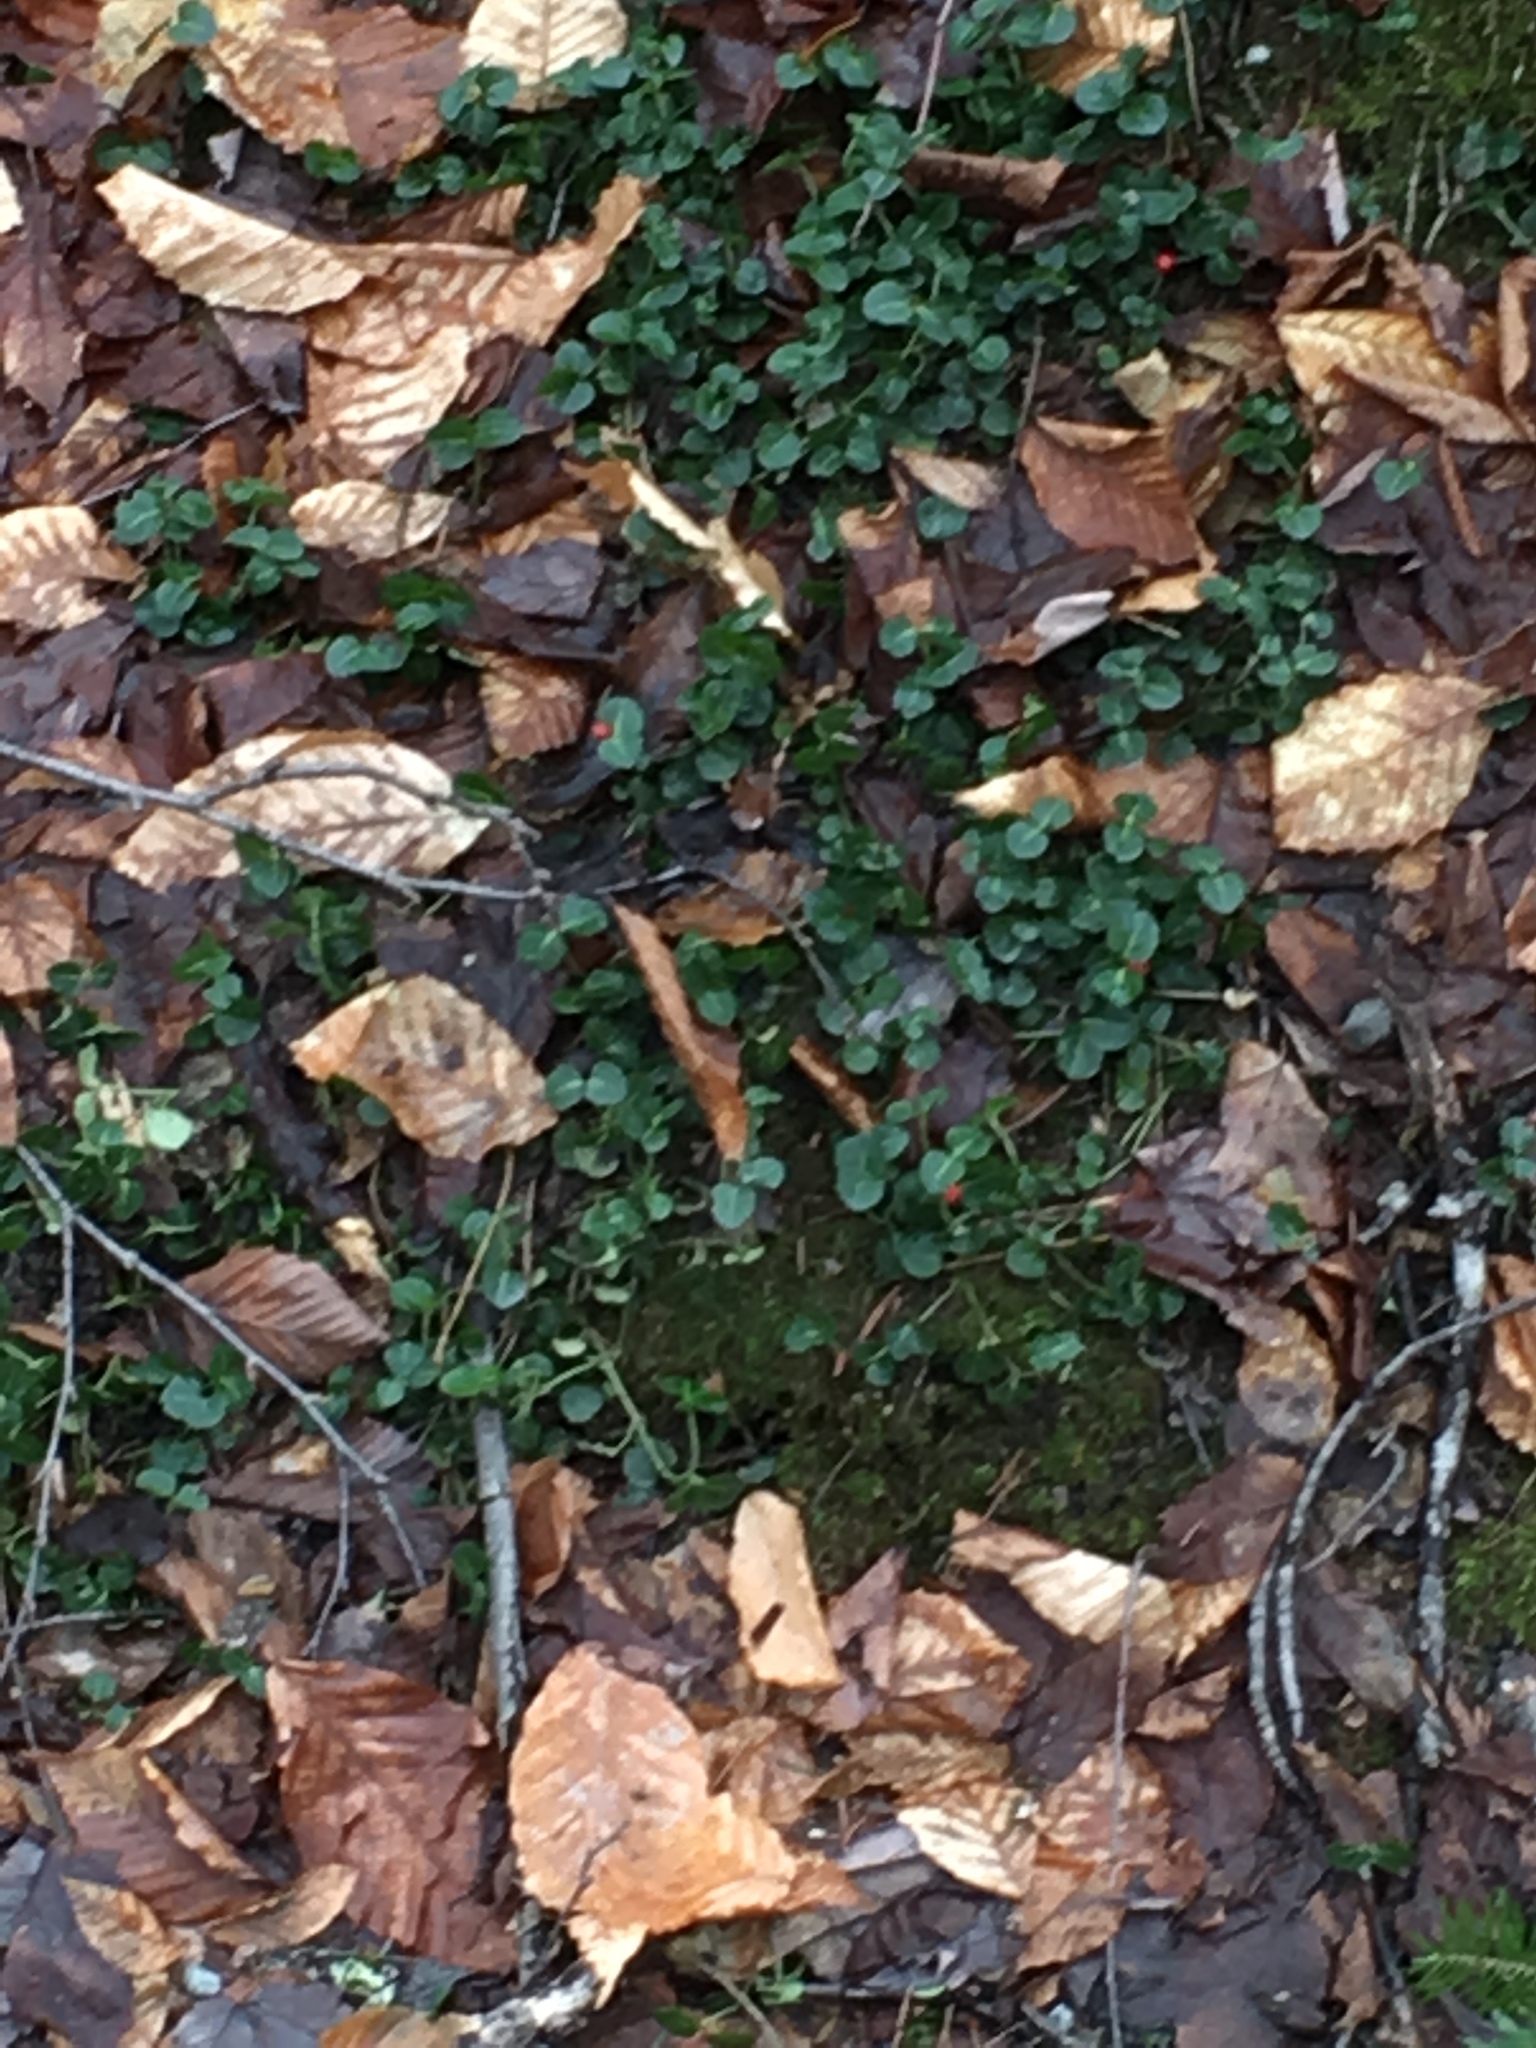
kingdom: Plantae
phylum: Tracheophyta
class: Magnoliopsida
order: Gentianales
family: Rubiaceae
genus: Mitchella
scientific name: Mitchella repens
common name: Partridge-berry
